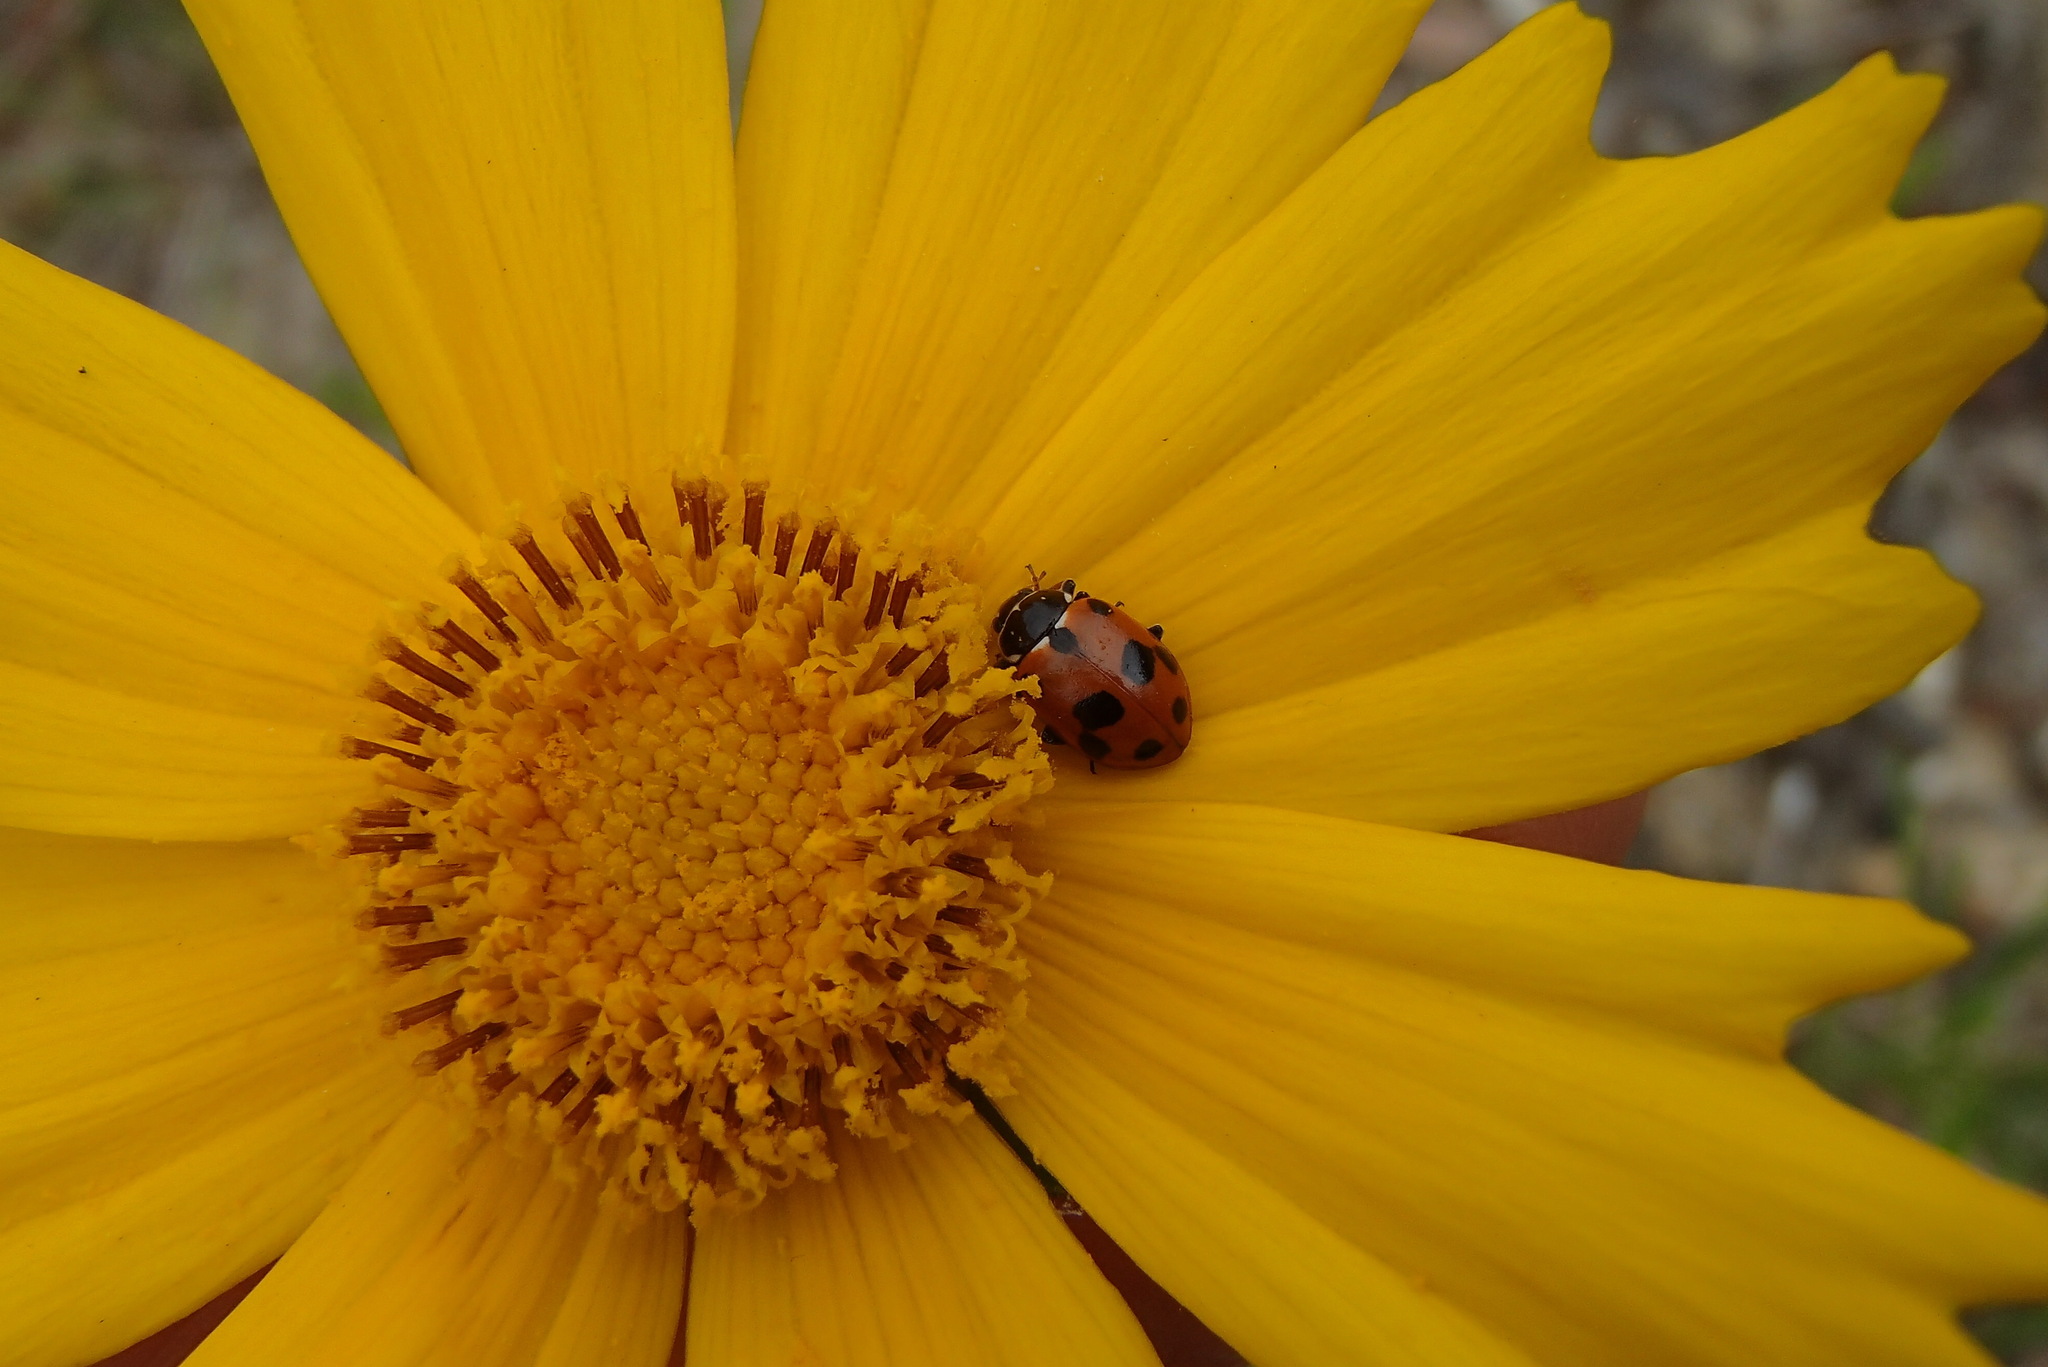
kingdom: Animalia
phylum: Arthropoda
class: Insecta
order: Coleoptera
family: Coccinellidae
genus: Hippodamia
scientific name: Hippodamia variegata
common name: Ladybird beetle
